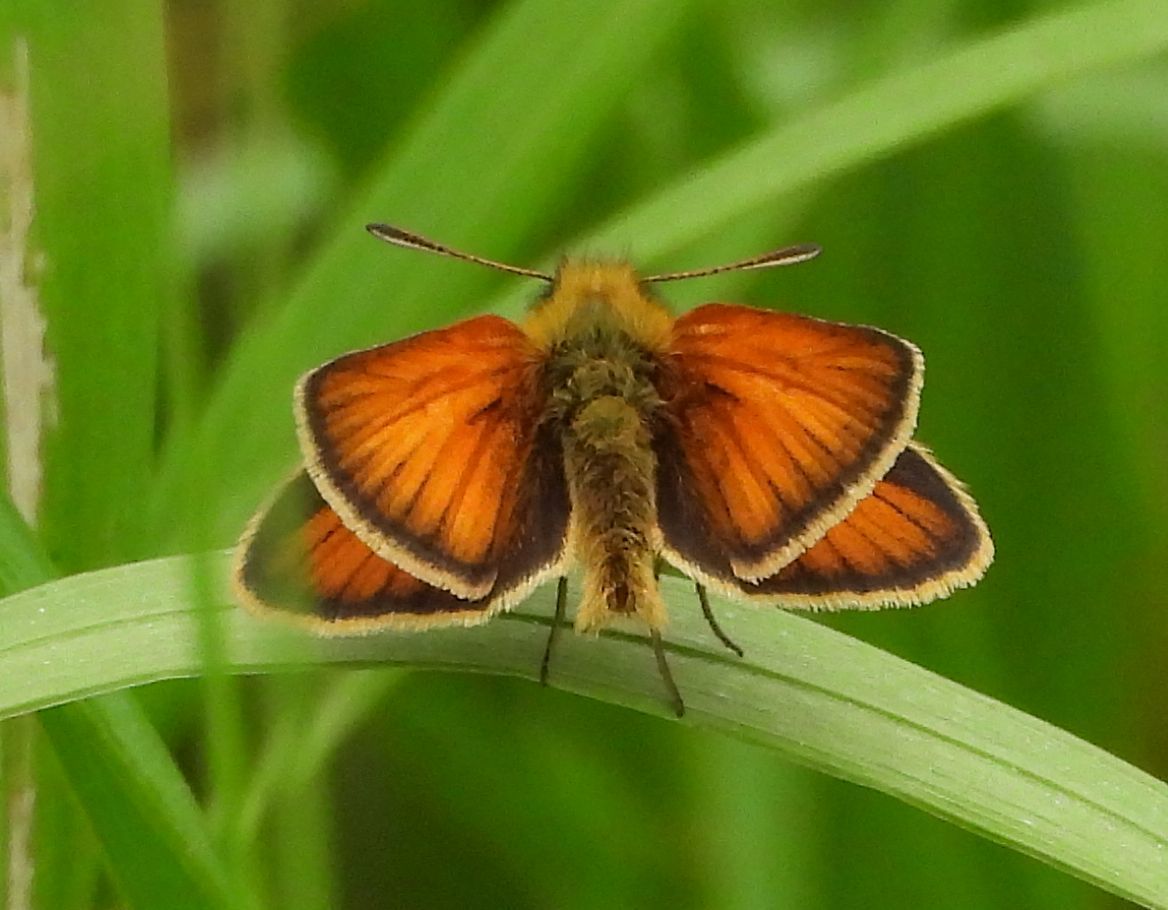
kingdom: Animalia
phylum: Arthropoda
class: Insecta
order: Lepidoptera
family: Hesperiidae
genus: Thymelicus
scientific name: Thymelicus lineola
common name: Essex skipper
